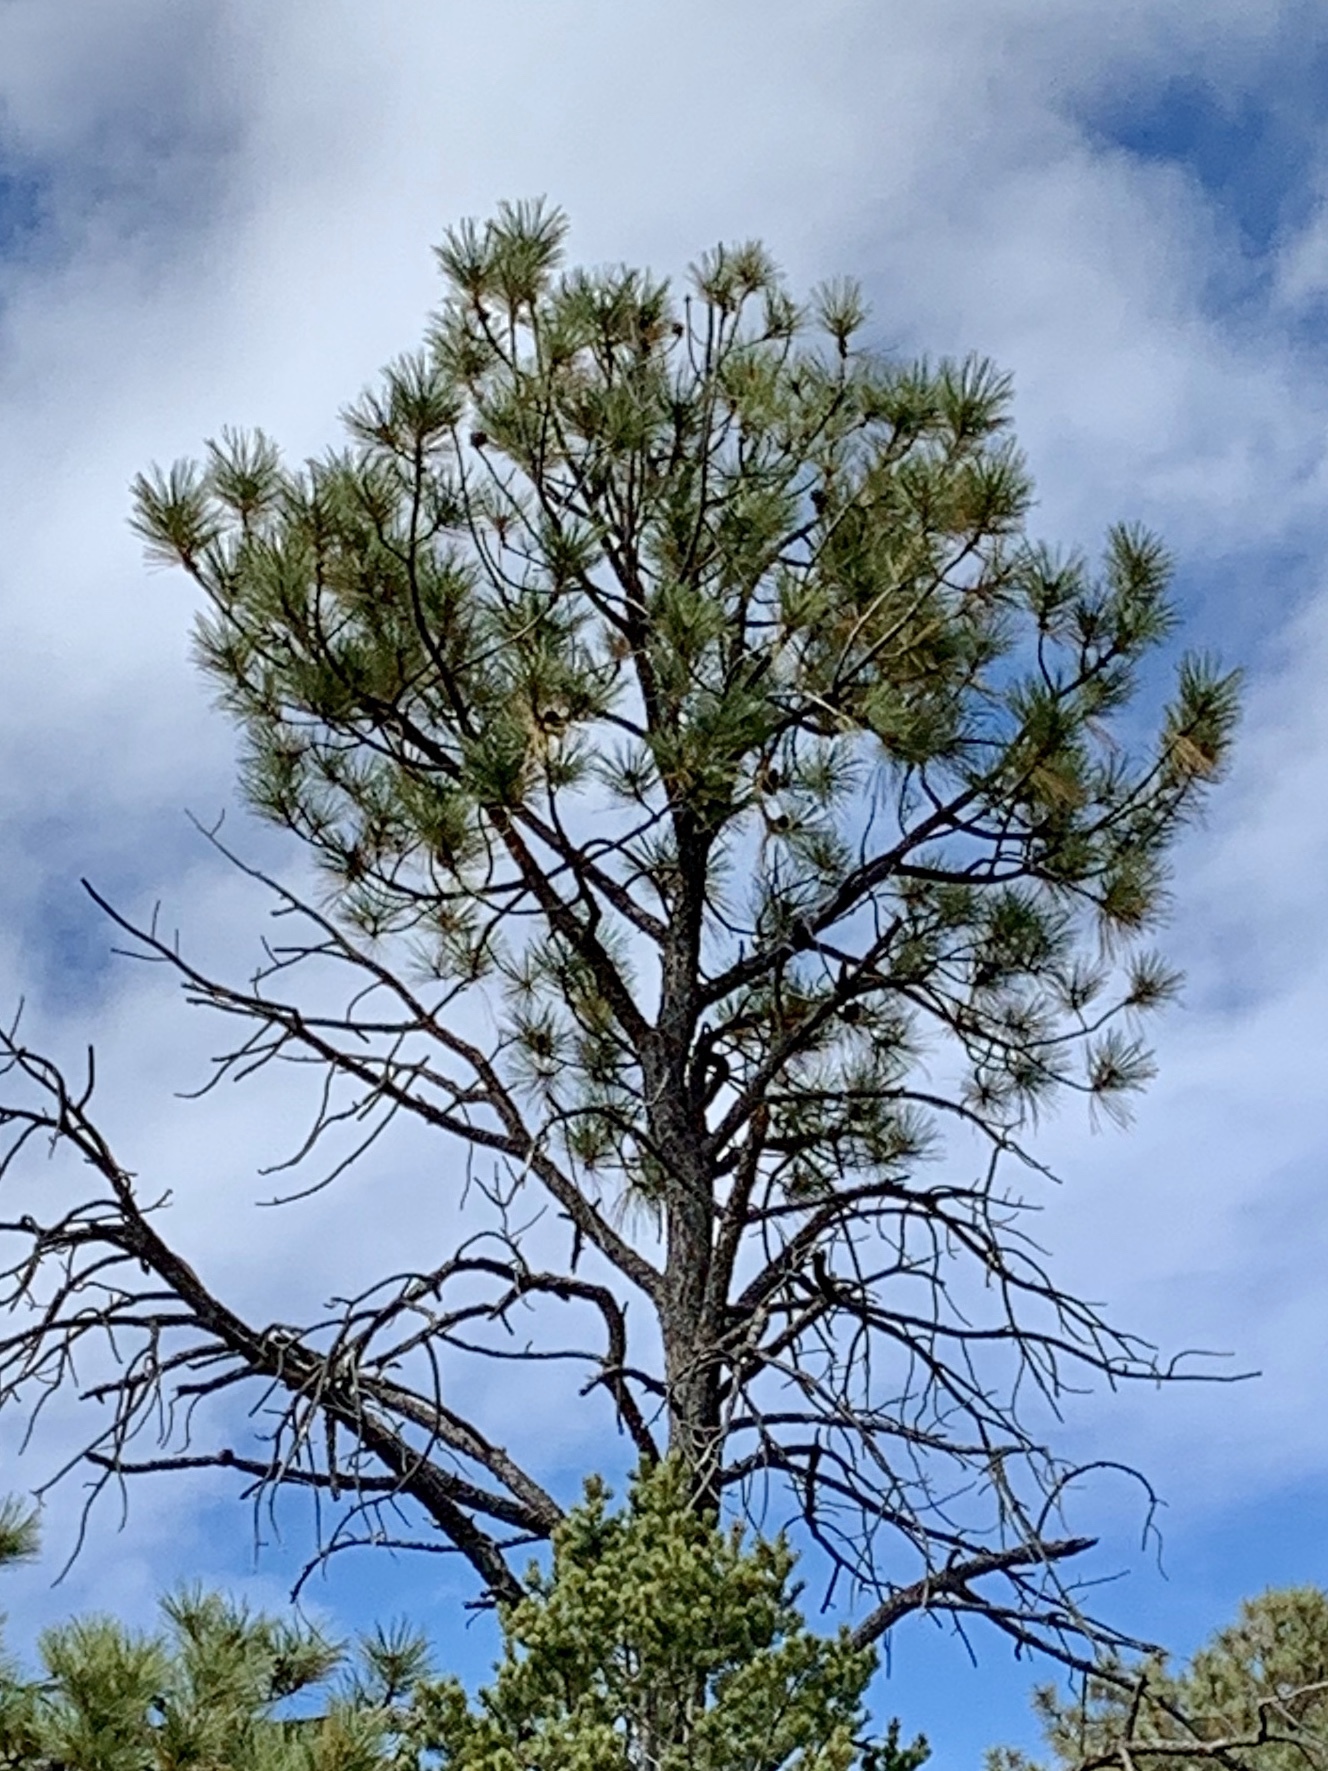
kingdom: Plantae
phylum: Tracheophyta
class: Pinopsida
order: Pinales
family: Pinaceae
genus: Pinus
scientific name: Pinus ponderosa
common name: Western yellow-pine
